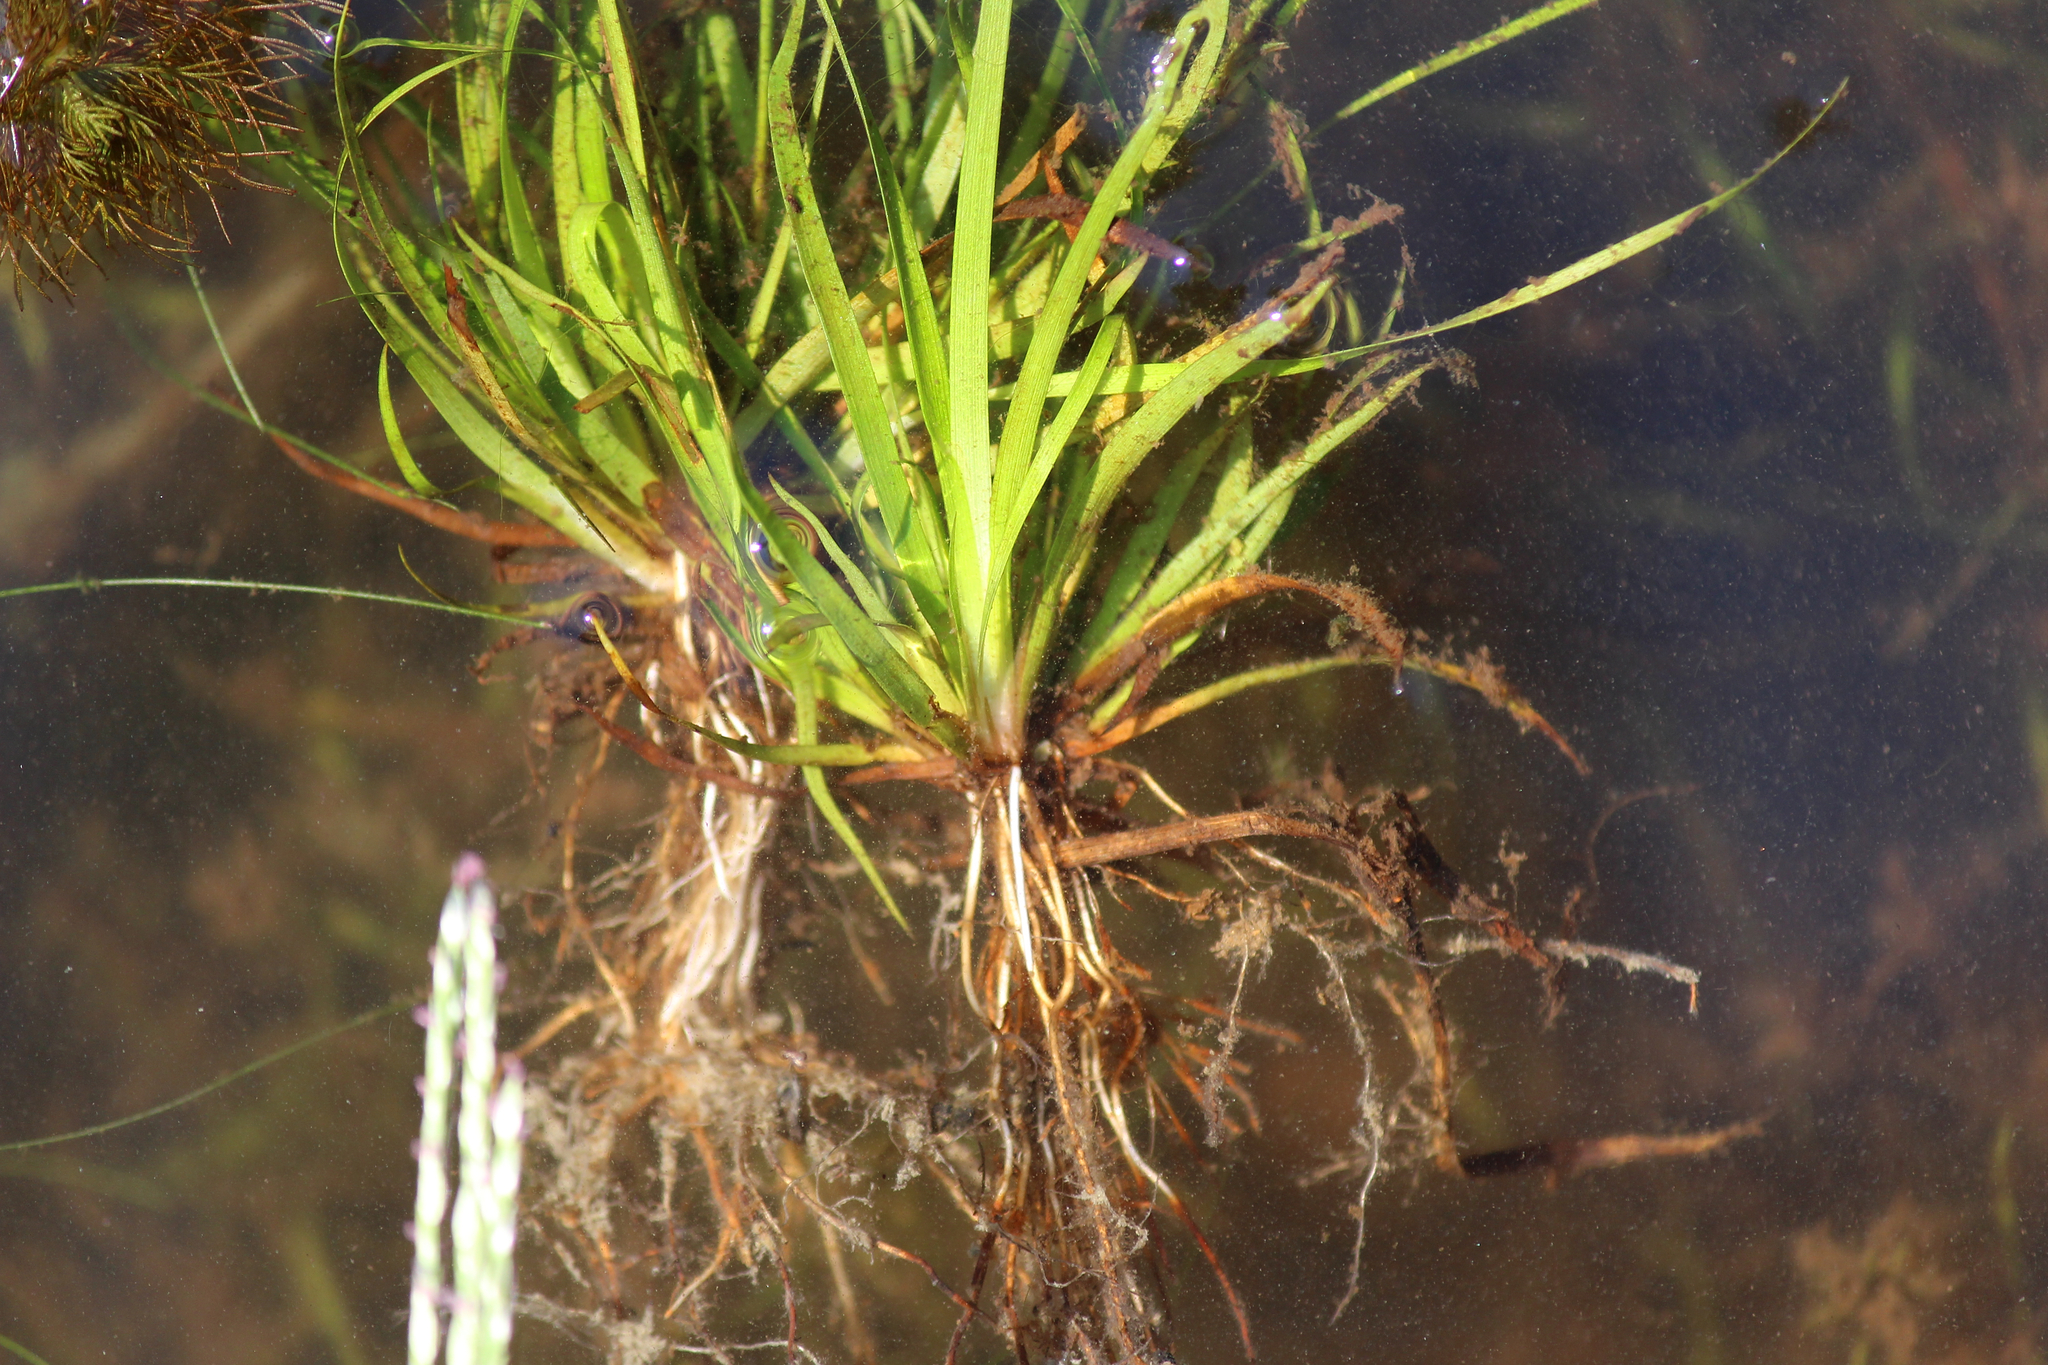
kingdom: Plantae
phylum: Tracheophyta
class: Liliopsida
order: Poales
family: Juncaceae
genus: Juncus
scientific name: Juncus repens
